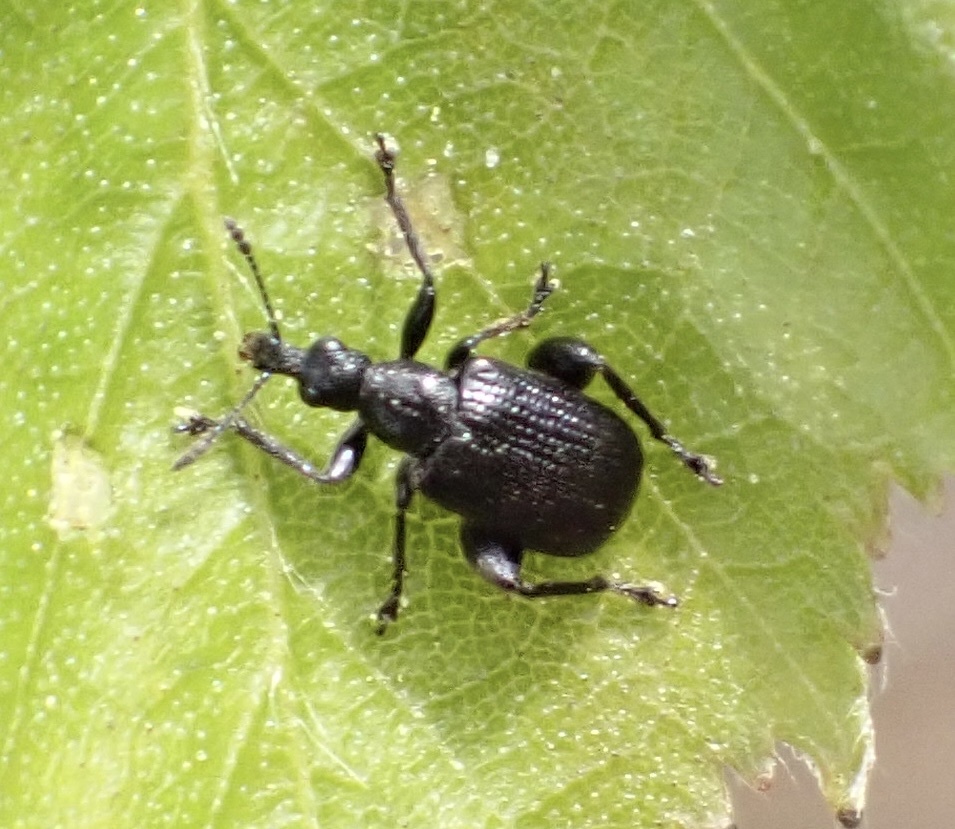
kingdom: Animalia
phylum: Arthropoda
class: Insecta
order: Coleoptera
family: Attelabidae
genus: Deporaus
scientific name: Deporaus betulae
